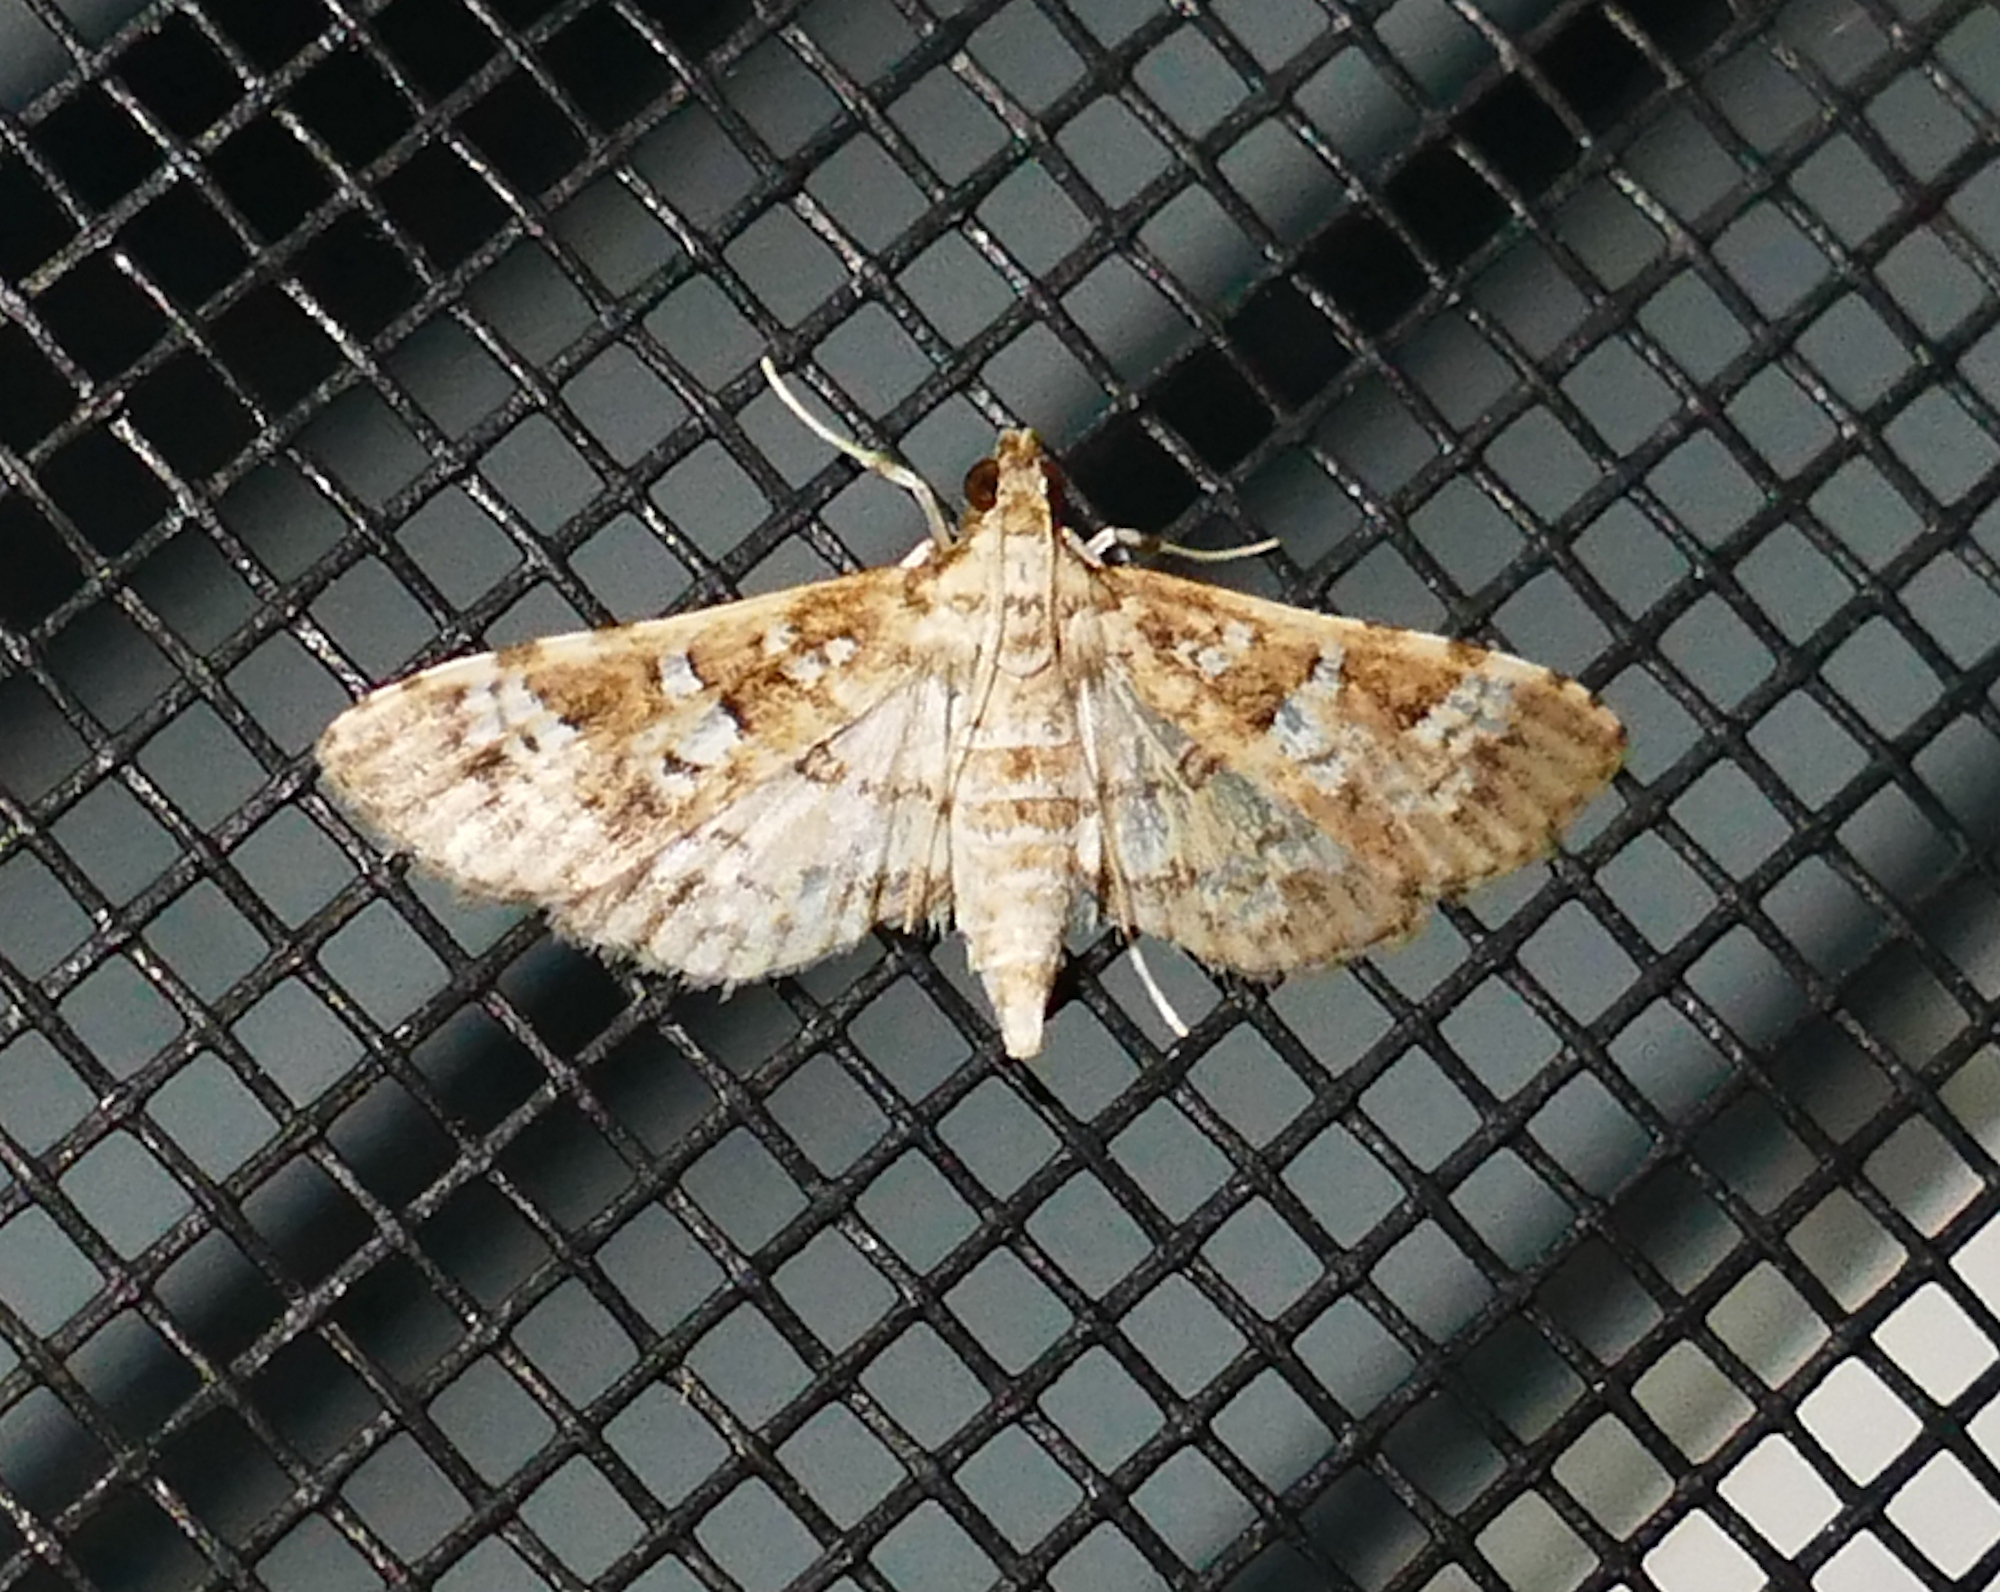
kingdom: Animalia
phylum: Arthropoda
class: Insecta
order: Lepidoptera
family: Crambidae
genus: Samea
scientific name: Samea multiplicalis
